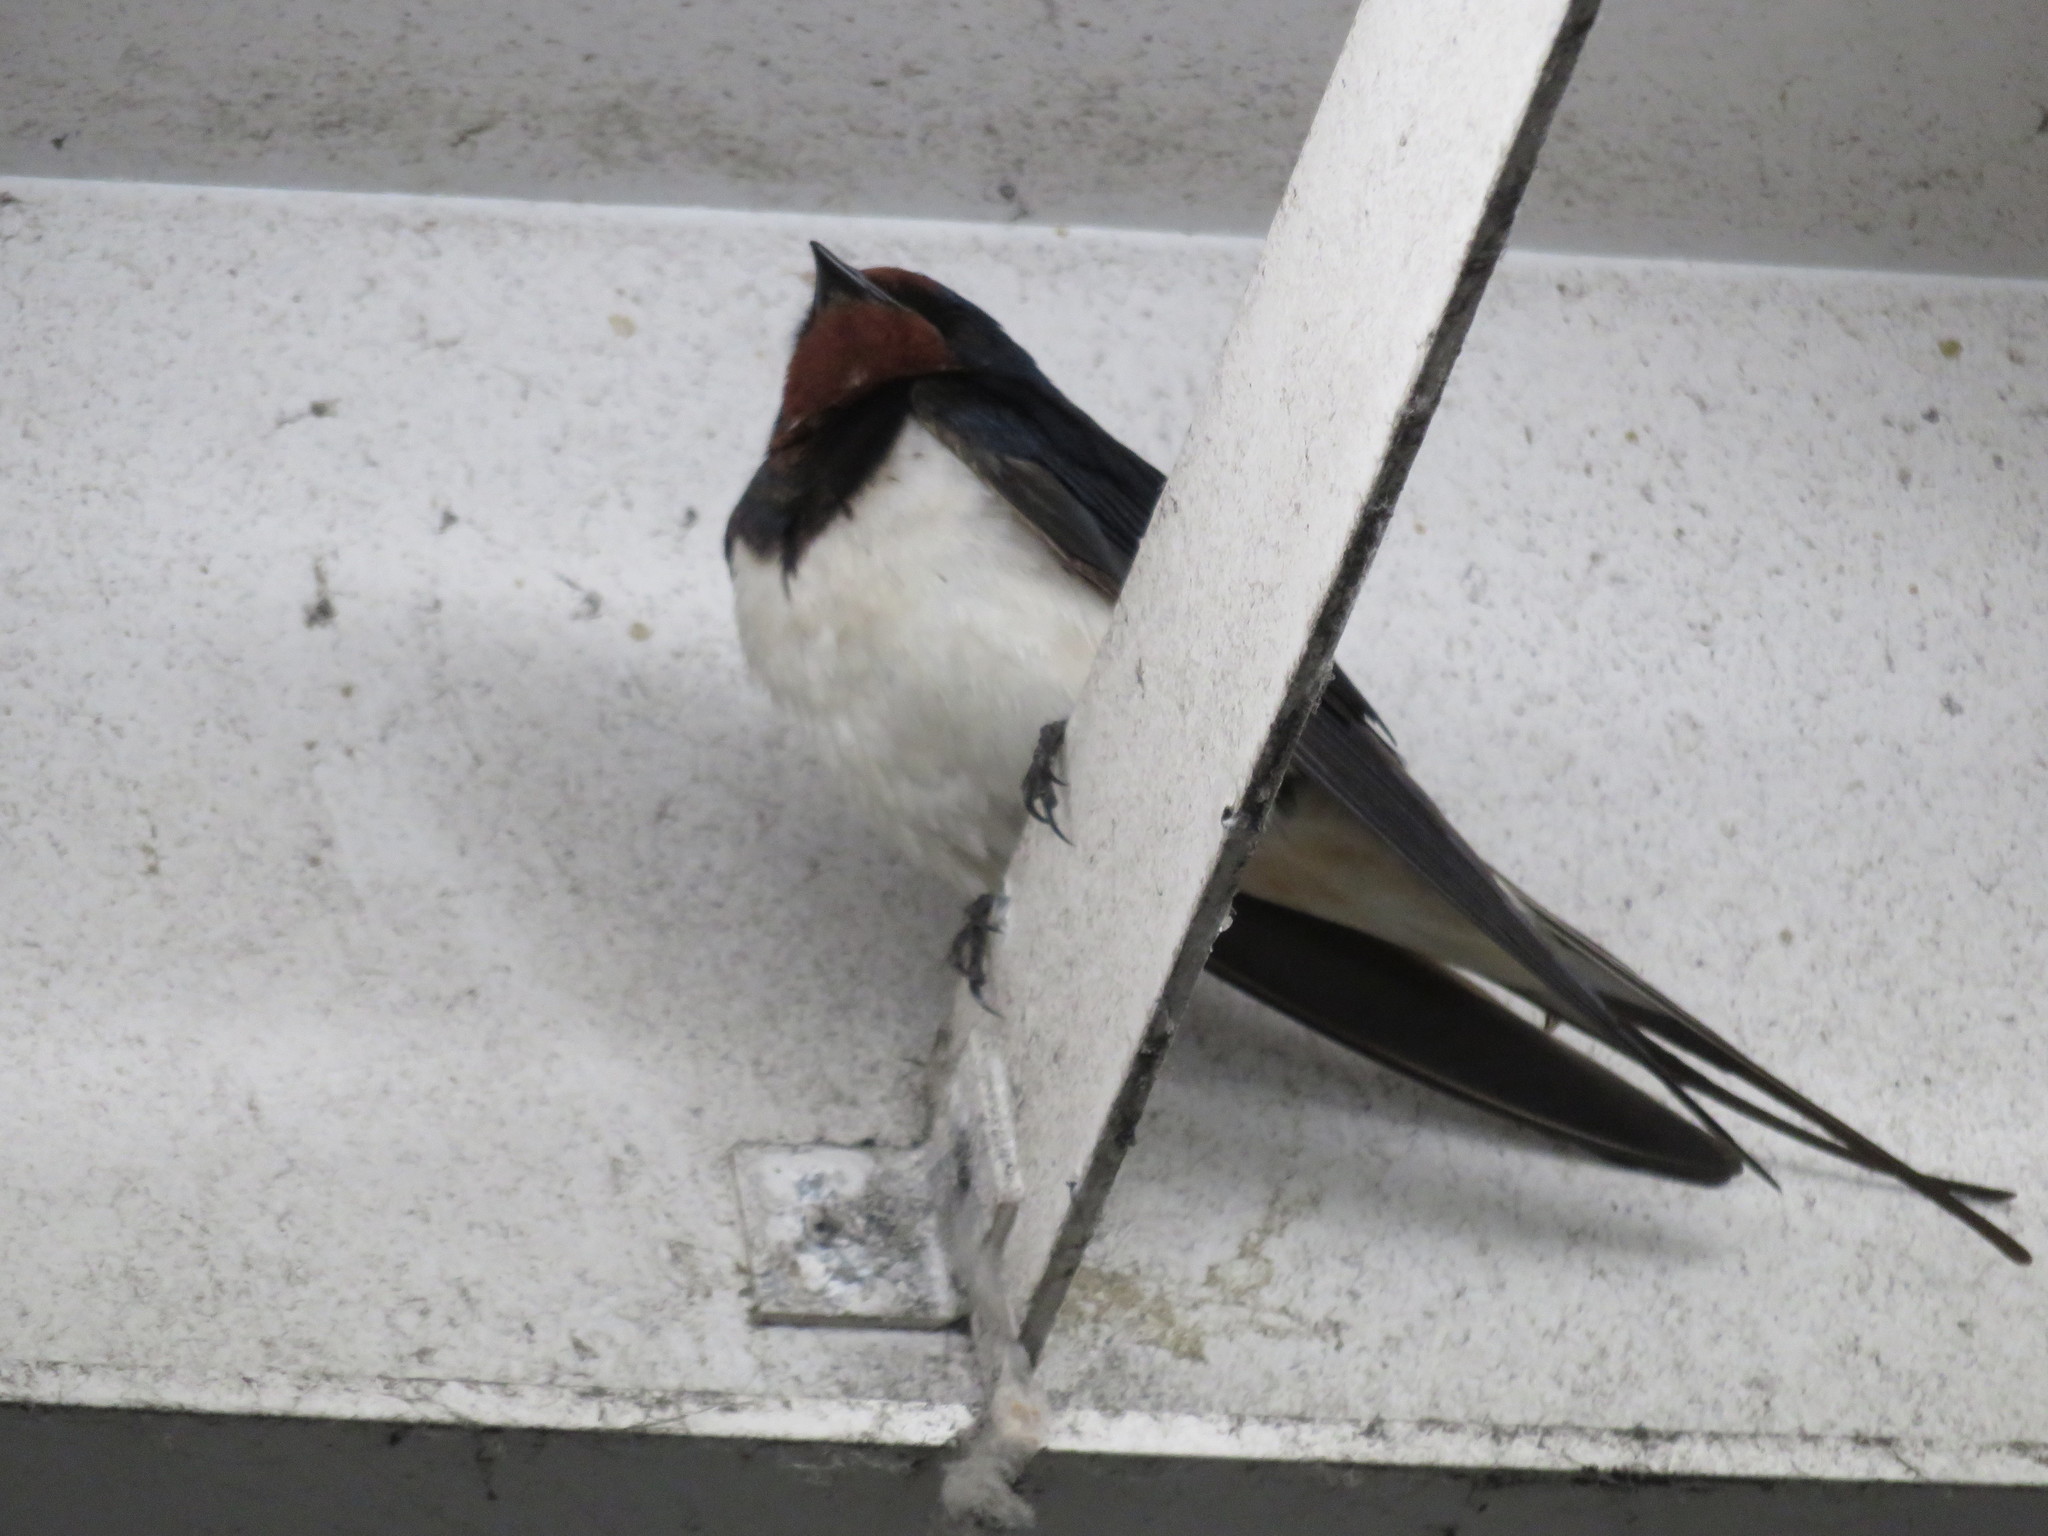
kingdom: Animalia
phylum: Chordata
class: Aves
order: Passeriformes
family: Hirundinidae
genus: Hirundo
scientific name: Hirundo rustica
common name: Barn swallow
